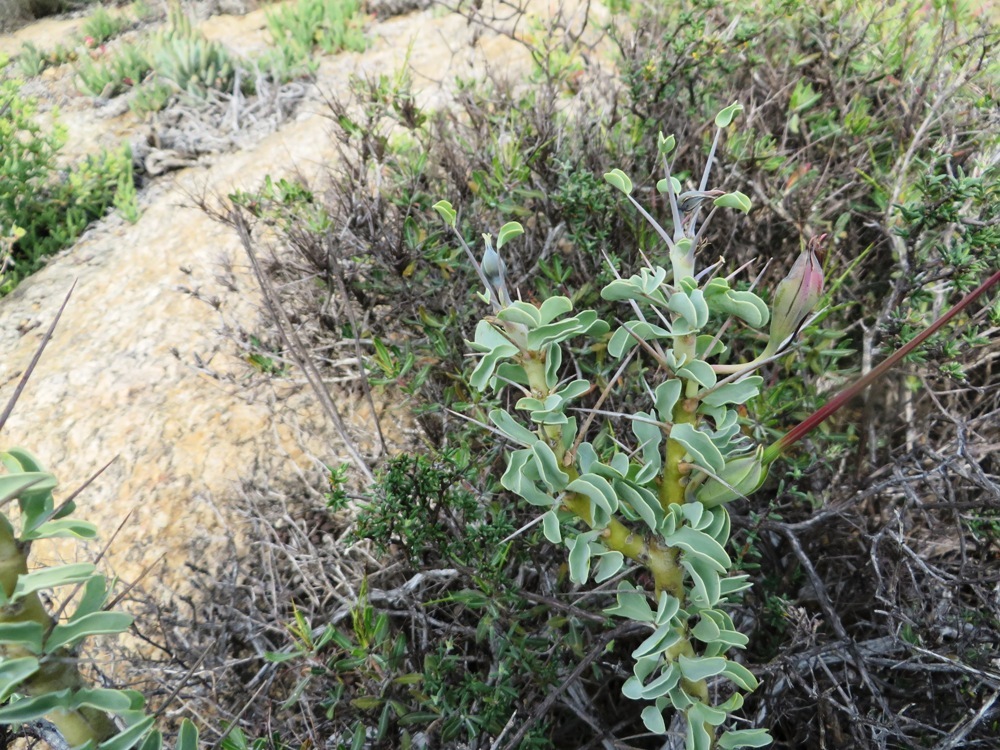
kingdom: Plantae
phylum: Tracheophyta
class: Magnoliopsida
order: Geraniales
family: Geraniaceae
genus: Monsonia
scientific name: Monsonia spinosa
